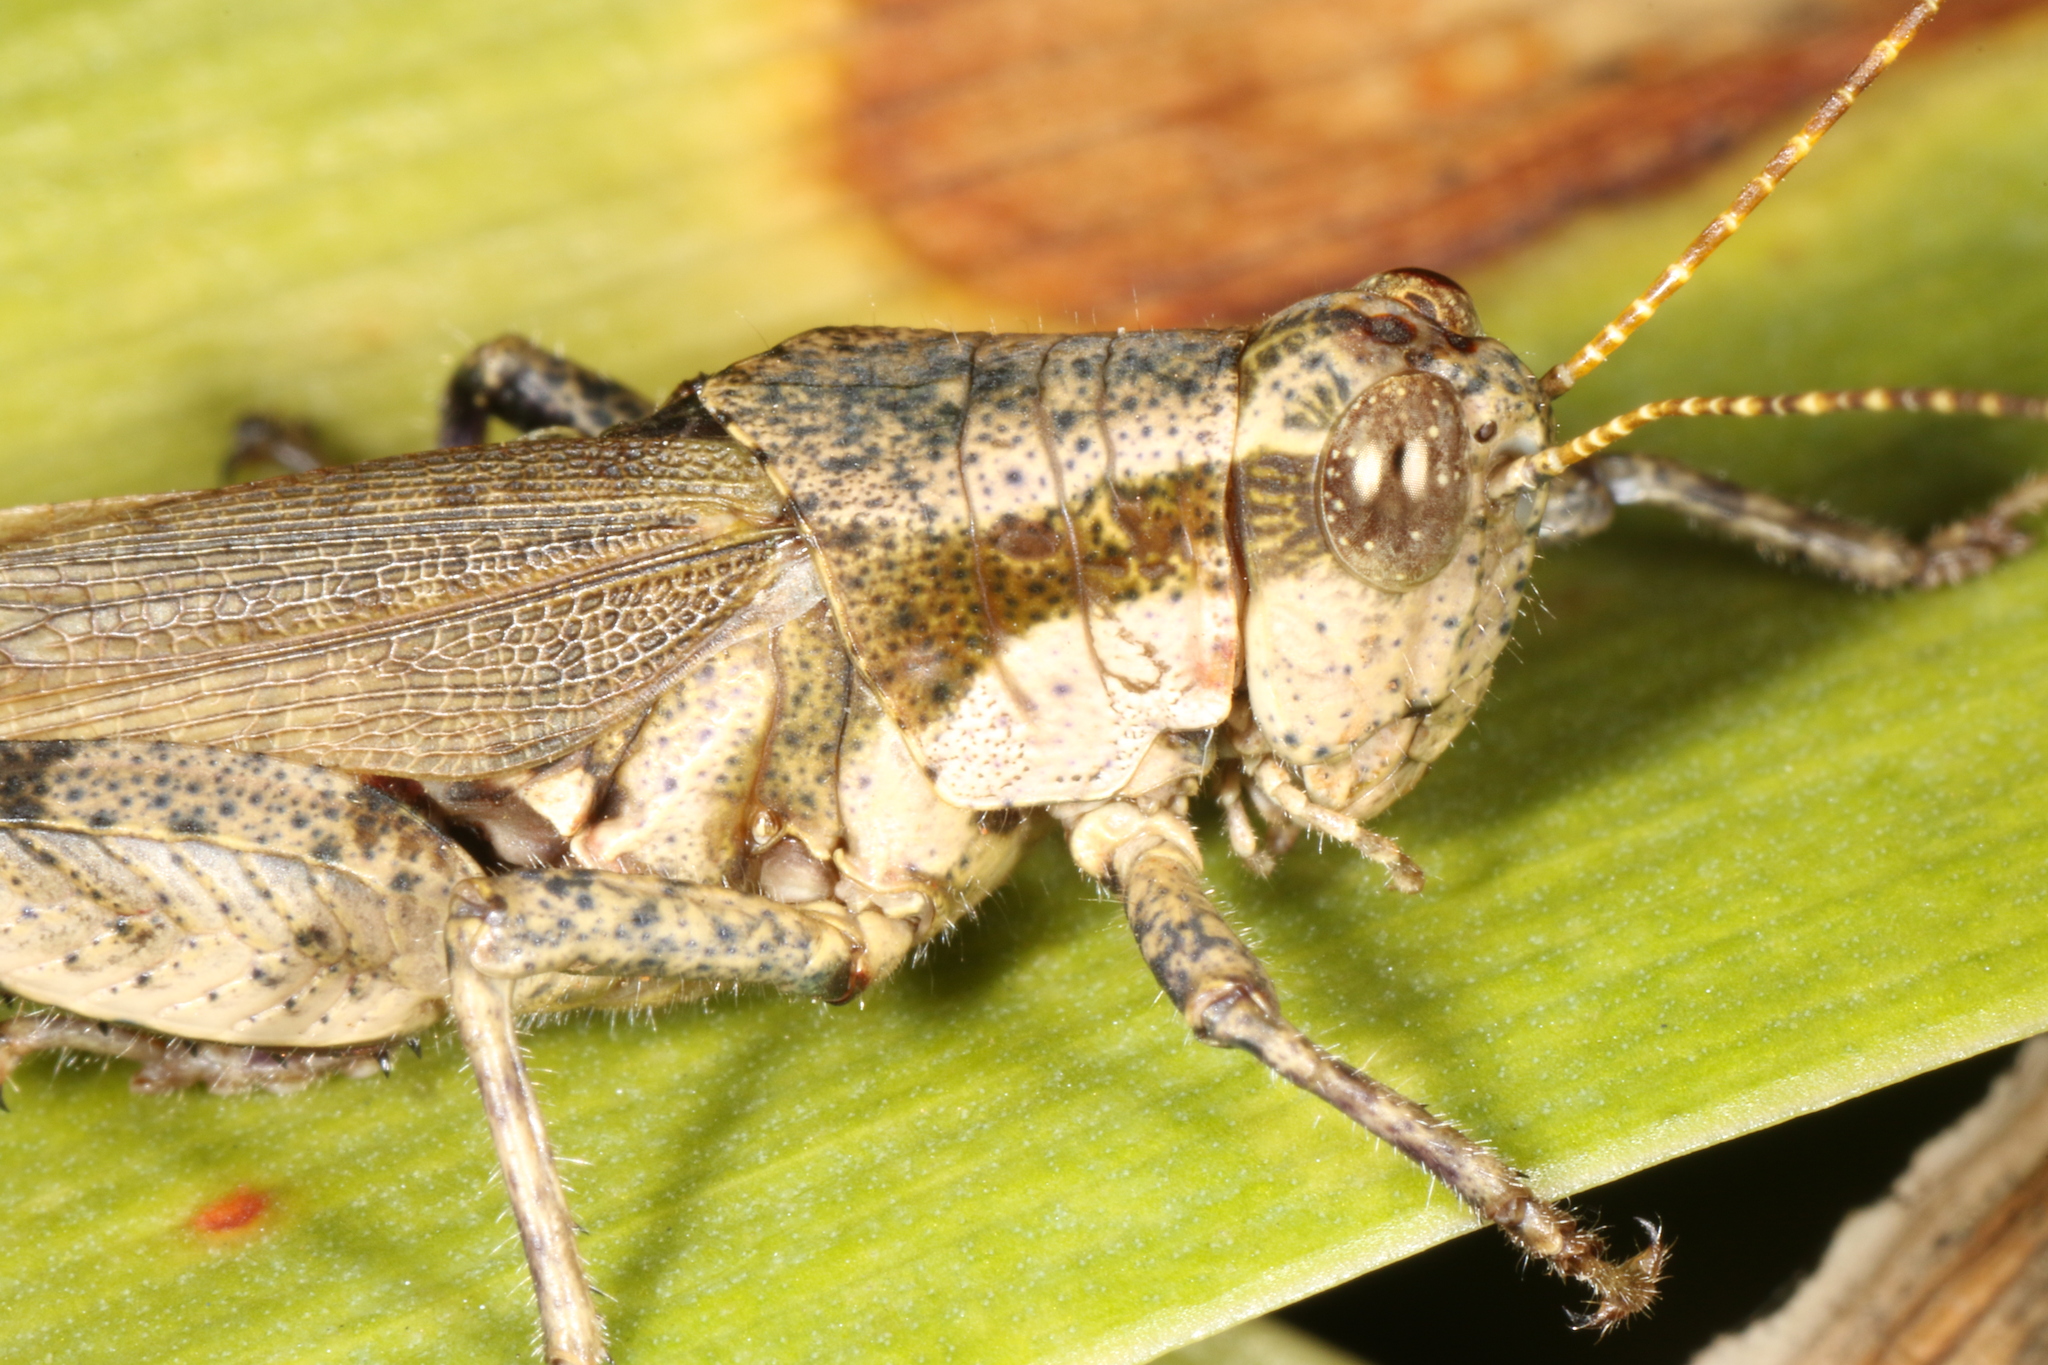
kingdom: Animalia
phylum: Arthropoda
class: Insecta
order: Orthoptera
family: Acrididae
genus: Ronderosia
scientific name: Ronderosia bergii
